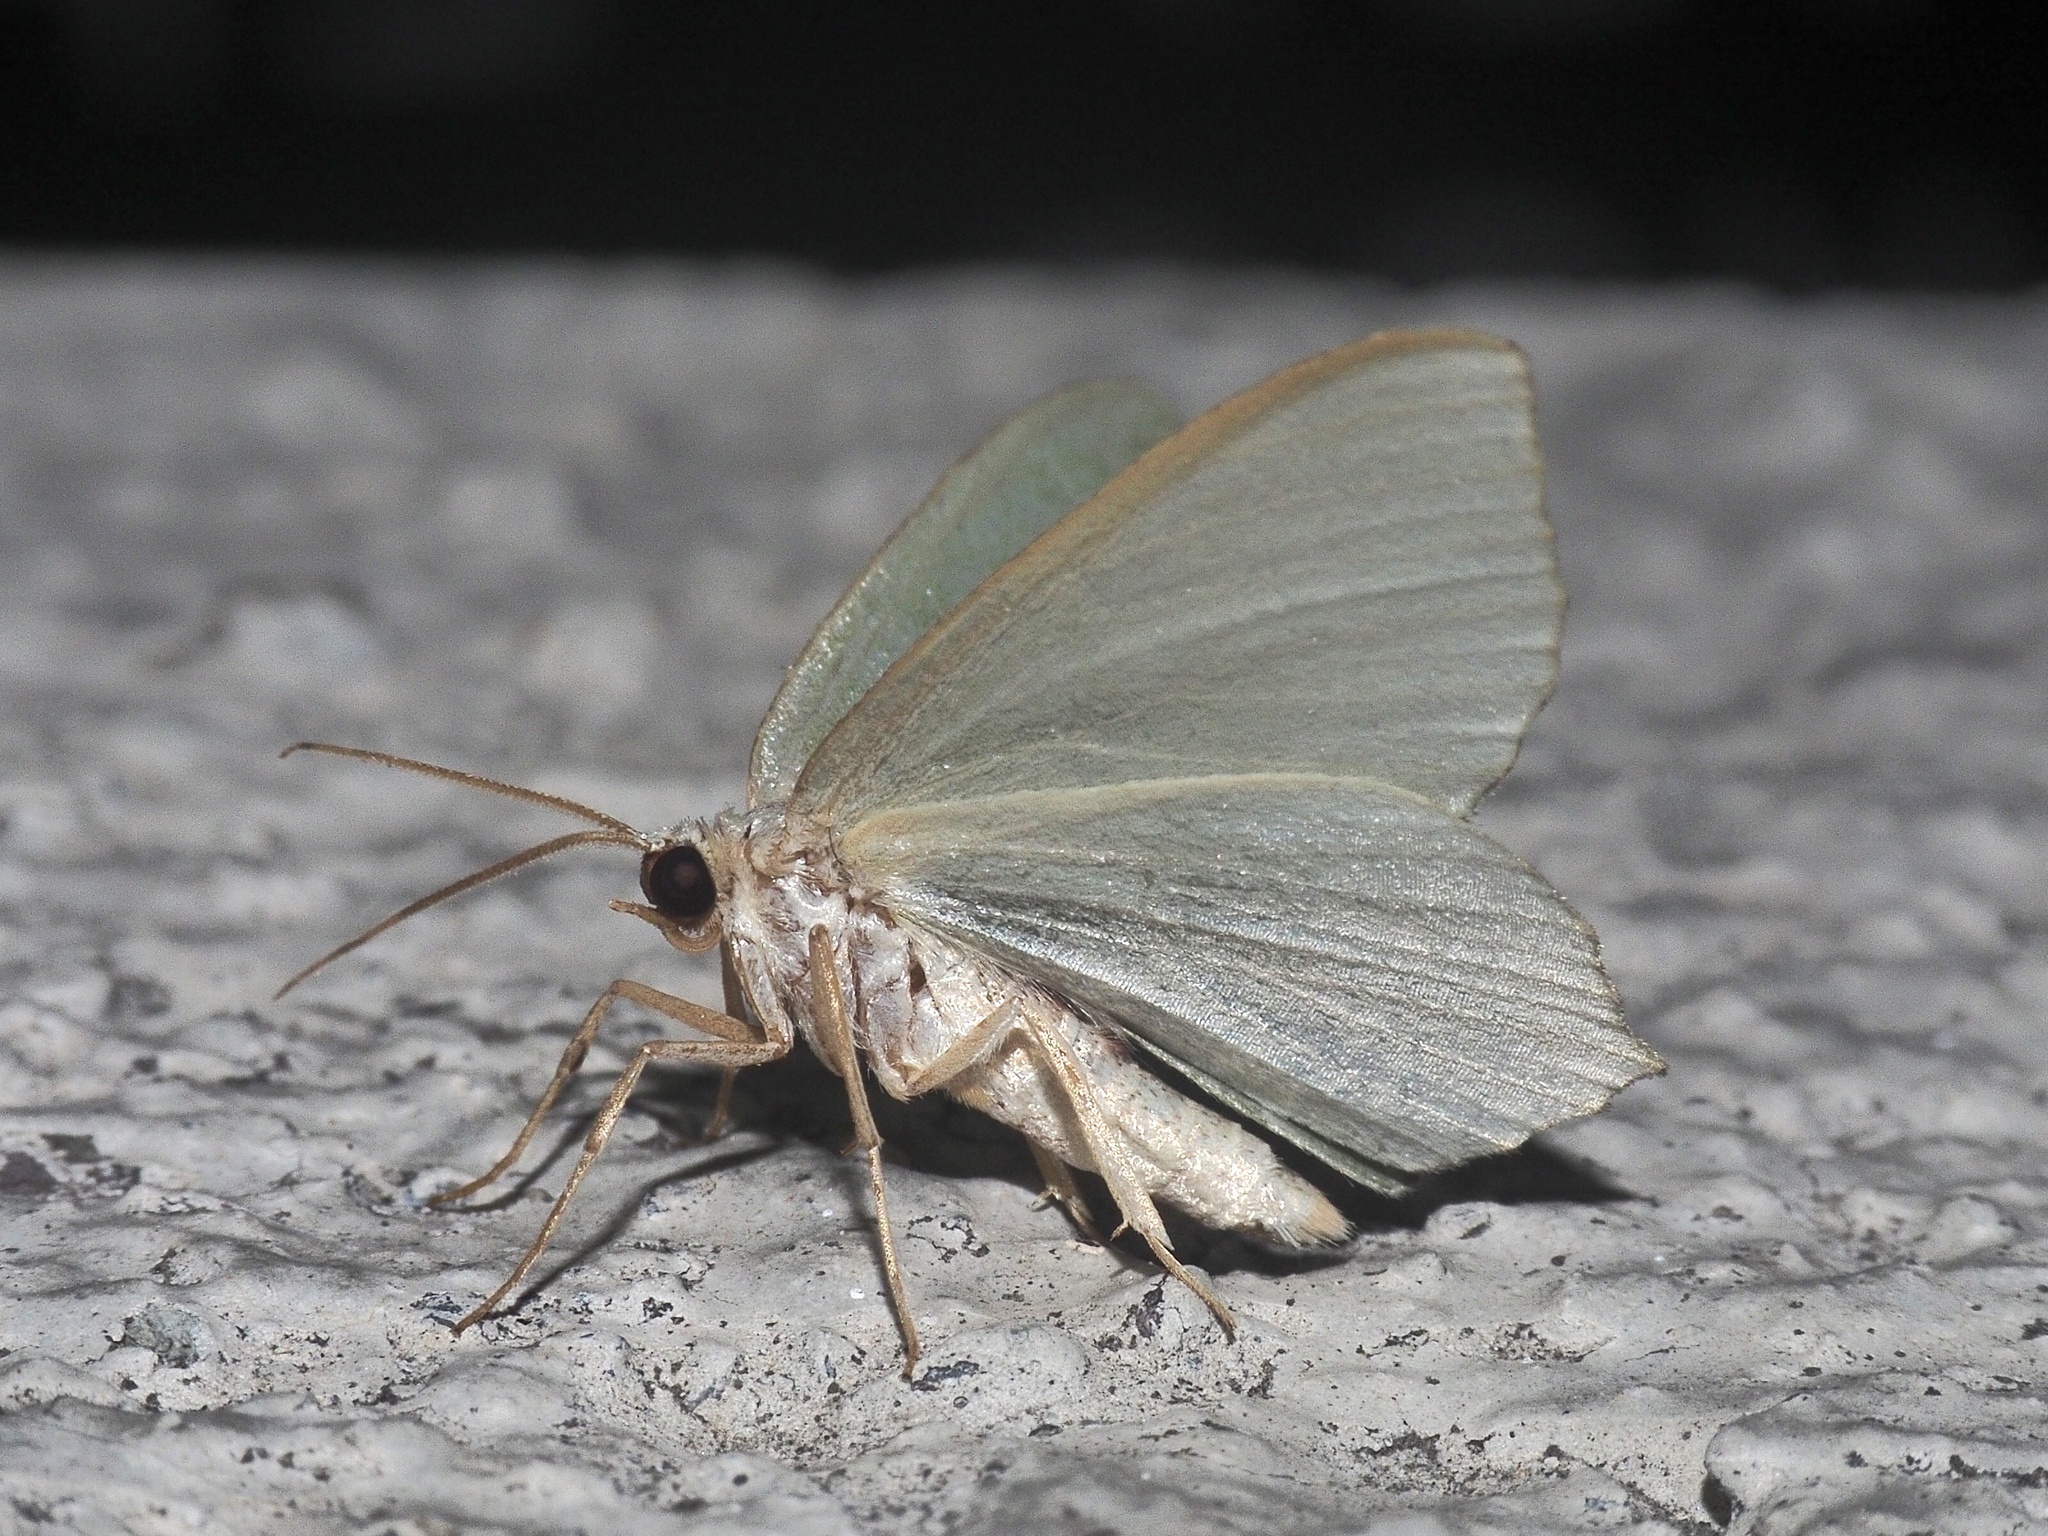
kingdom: Animalia
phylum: Arthropoda
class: Insecta
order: Lepidoptera
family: Geometridae
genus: Hemithea
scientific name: Hemithea aestivaria
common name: Common emerald
